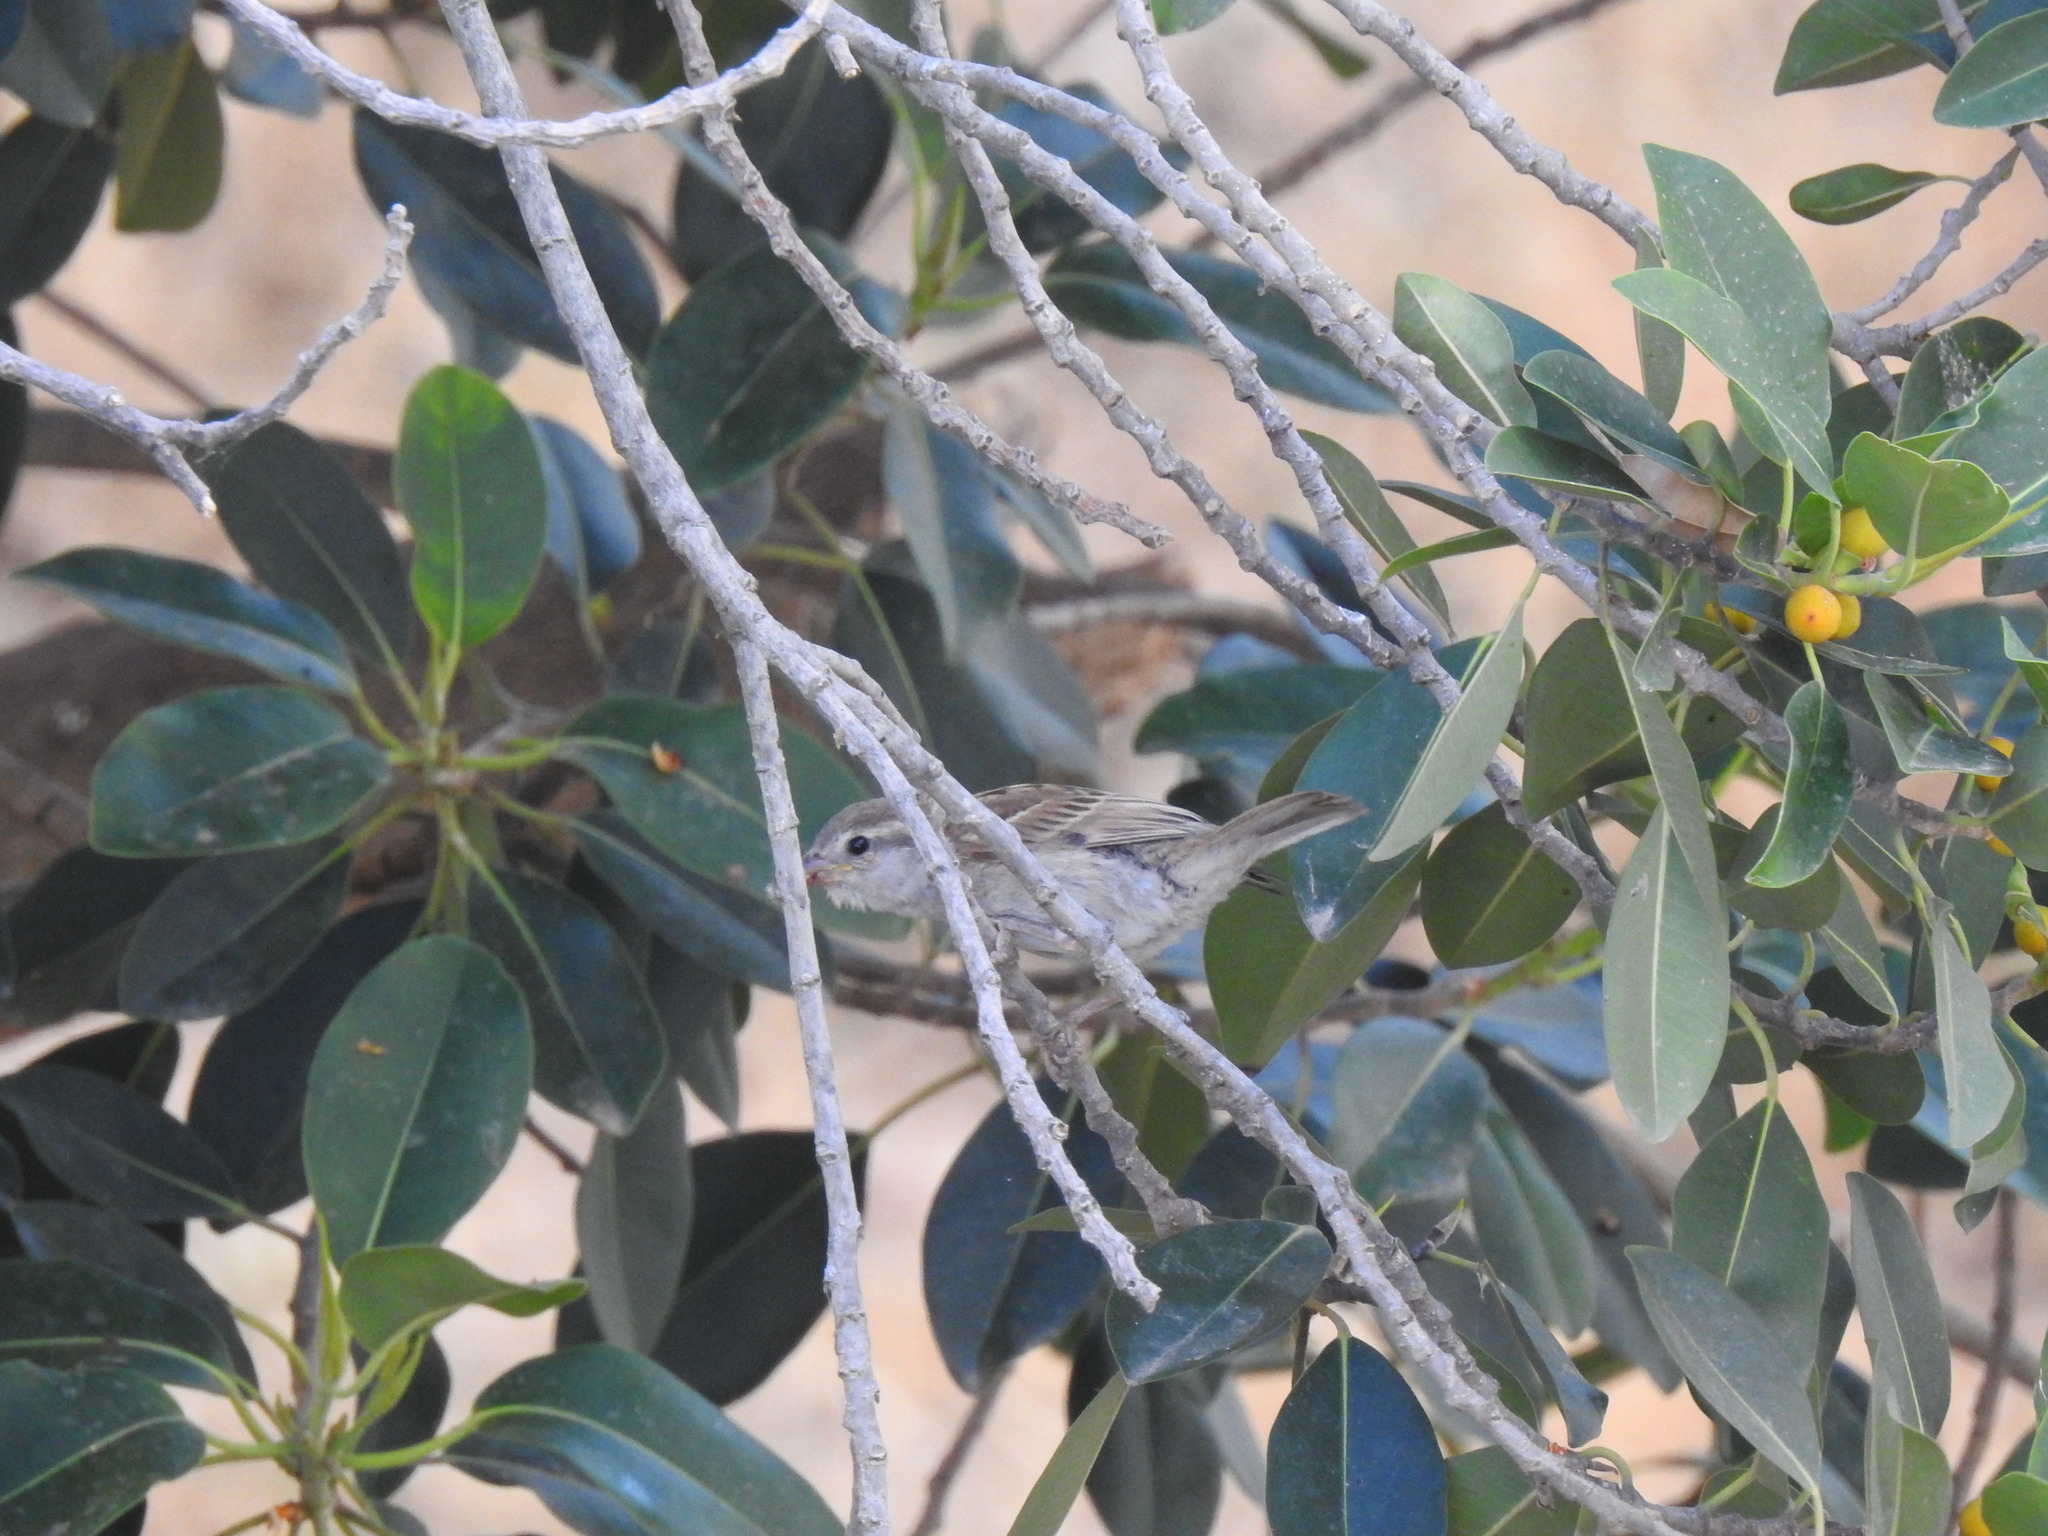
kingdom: Animalia
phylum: Chordata
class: Aves
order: Passeriformes
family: Passeridae
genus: Passer
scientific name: Passer domesticus
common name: House sparrow
